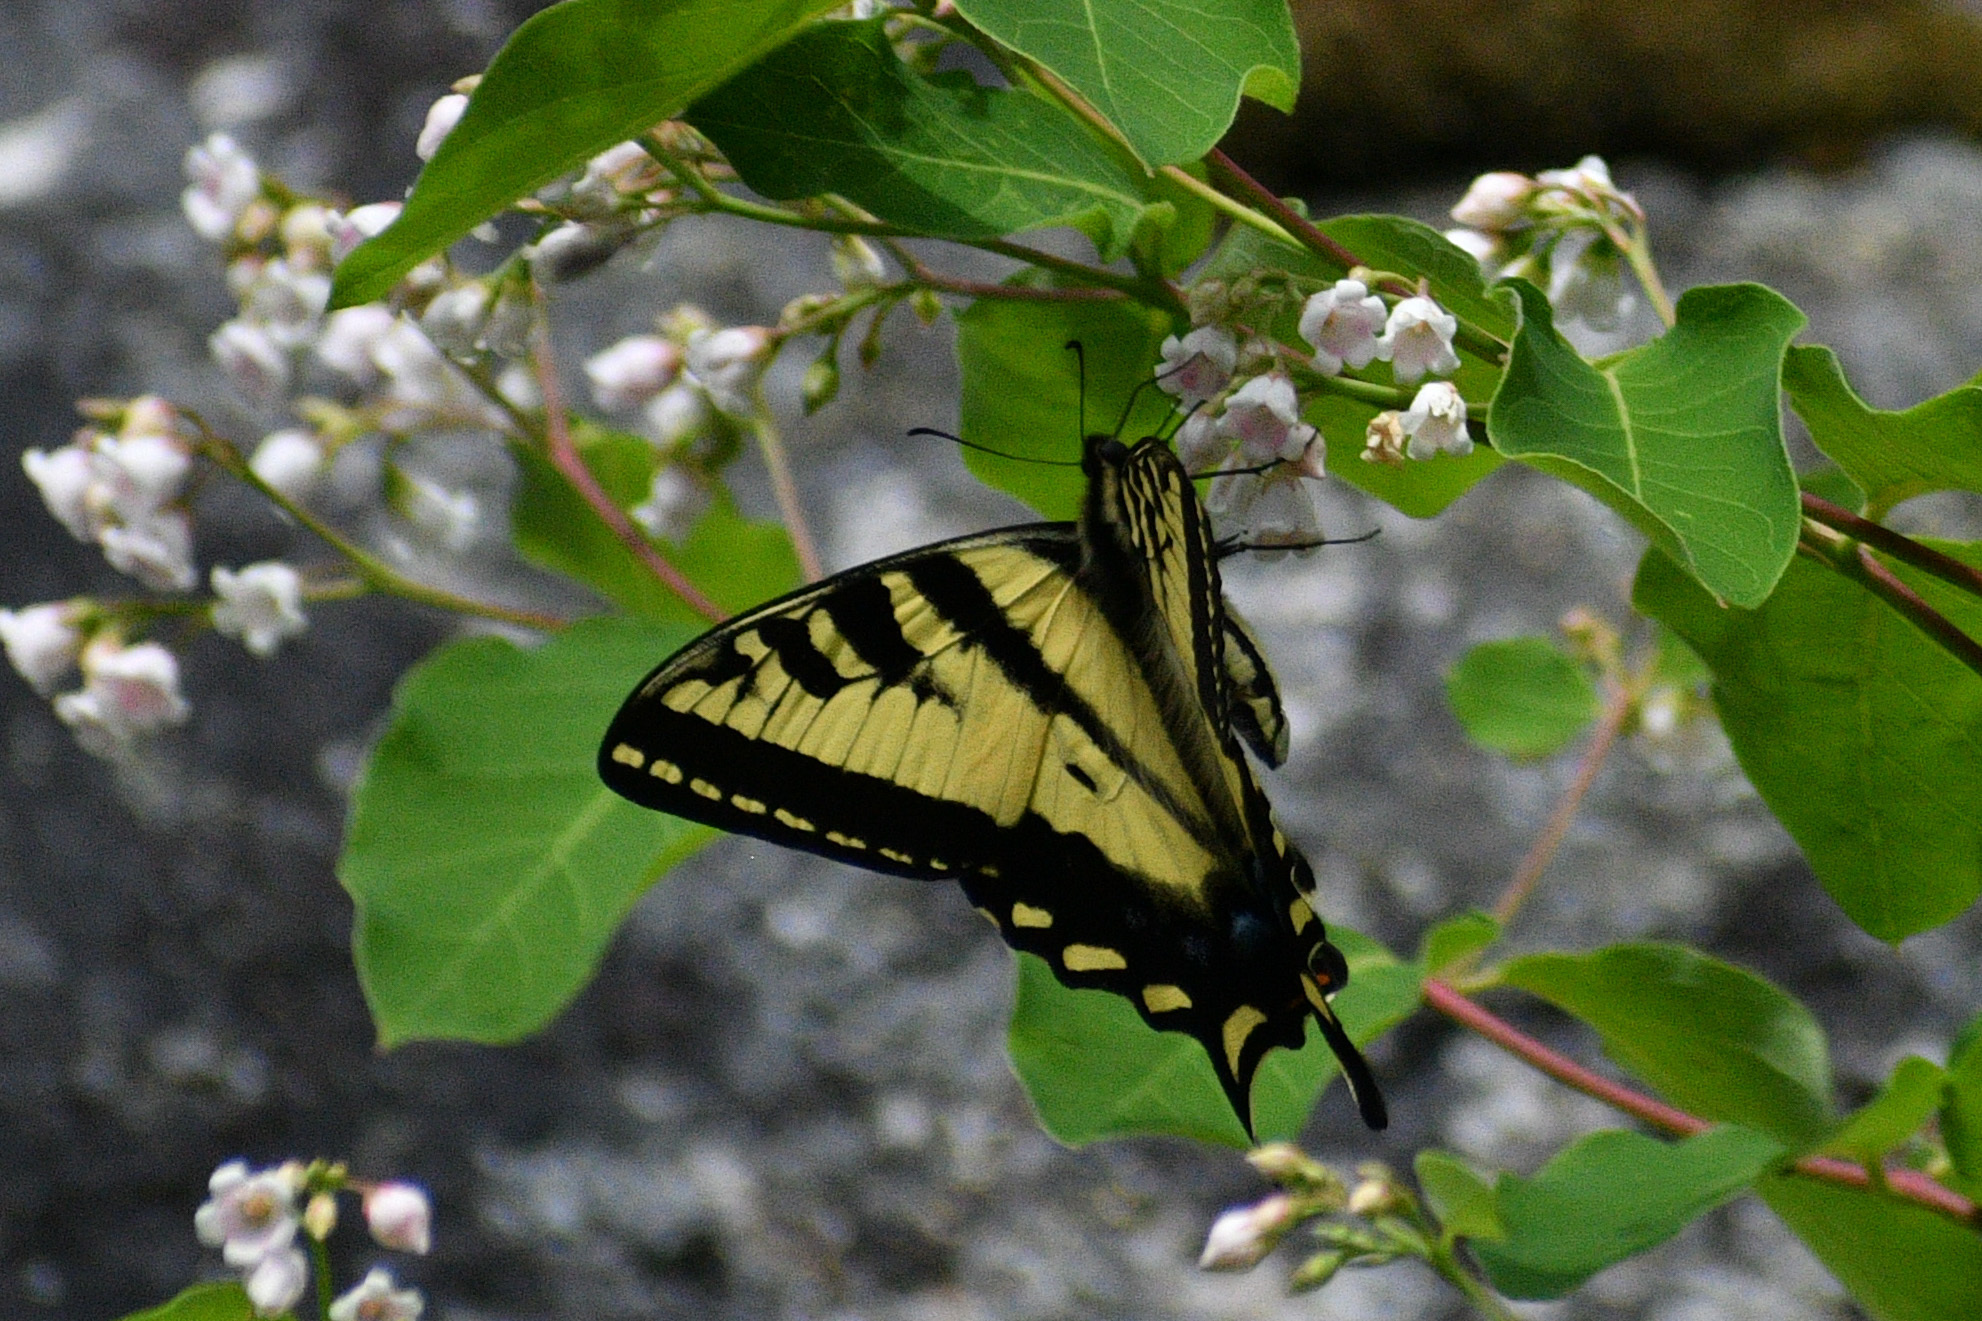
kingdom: Animalia
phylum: Arthropoda
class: Insecta
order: Lepidoptera
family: Papilionidae
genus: Papilio
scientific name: Papilio rutulus
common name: Western tiger swallowtail
